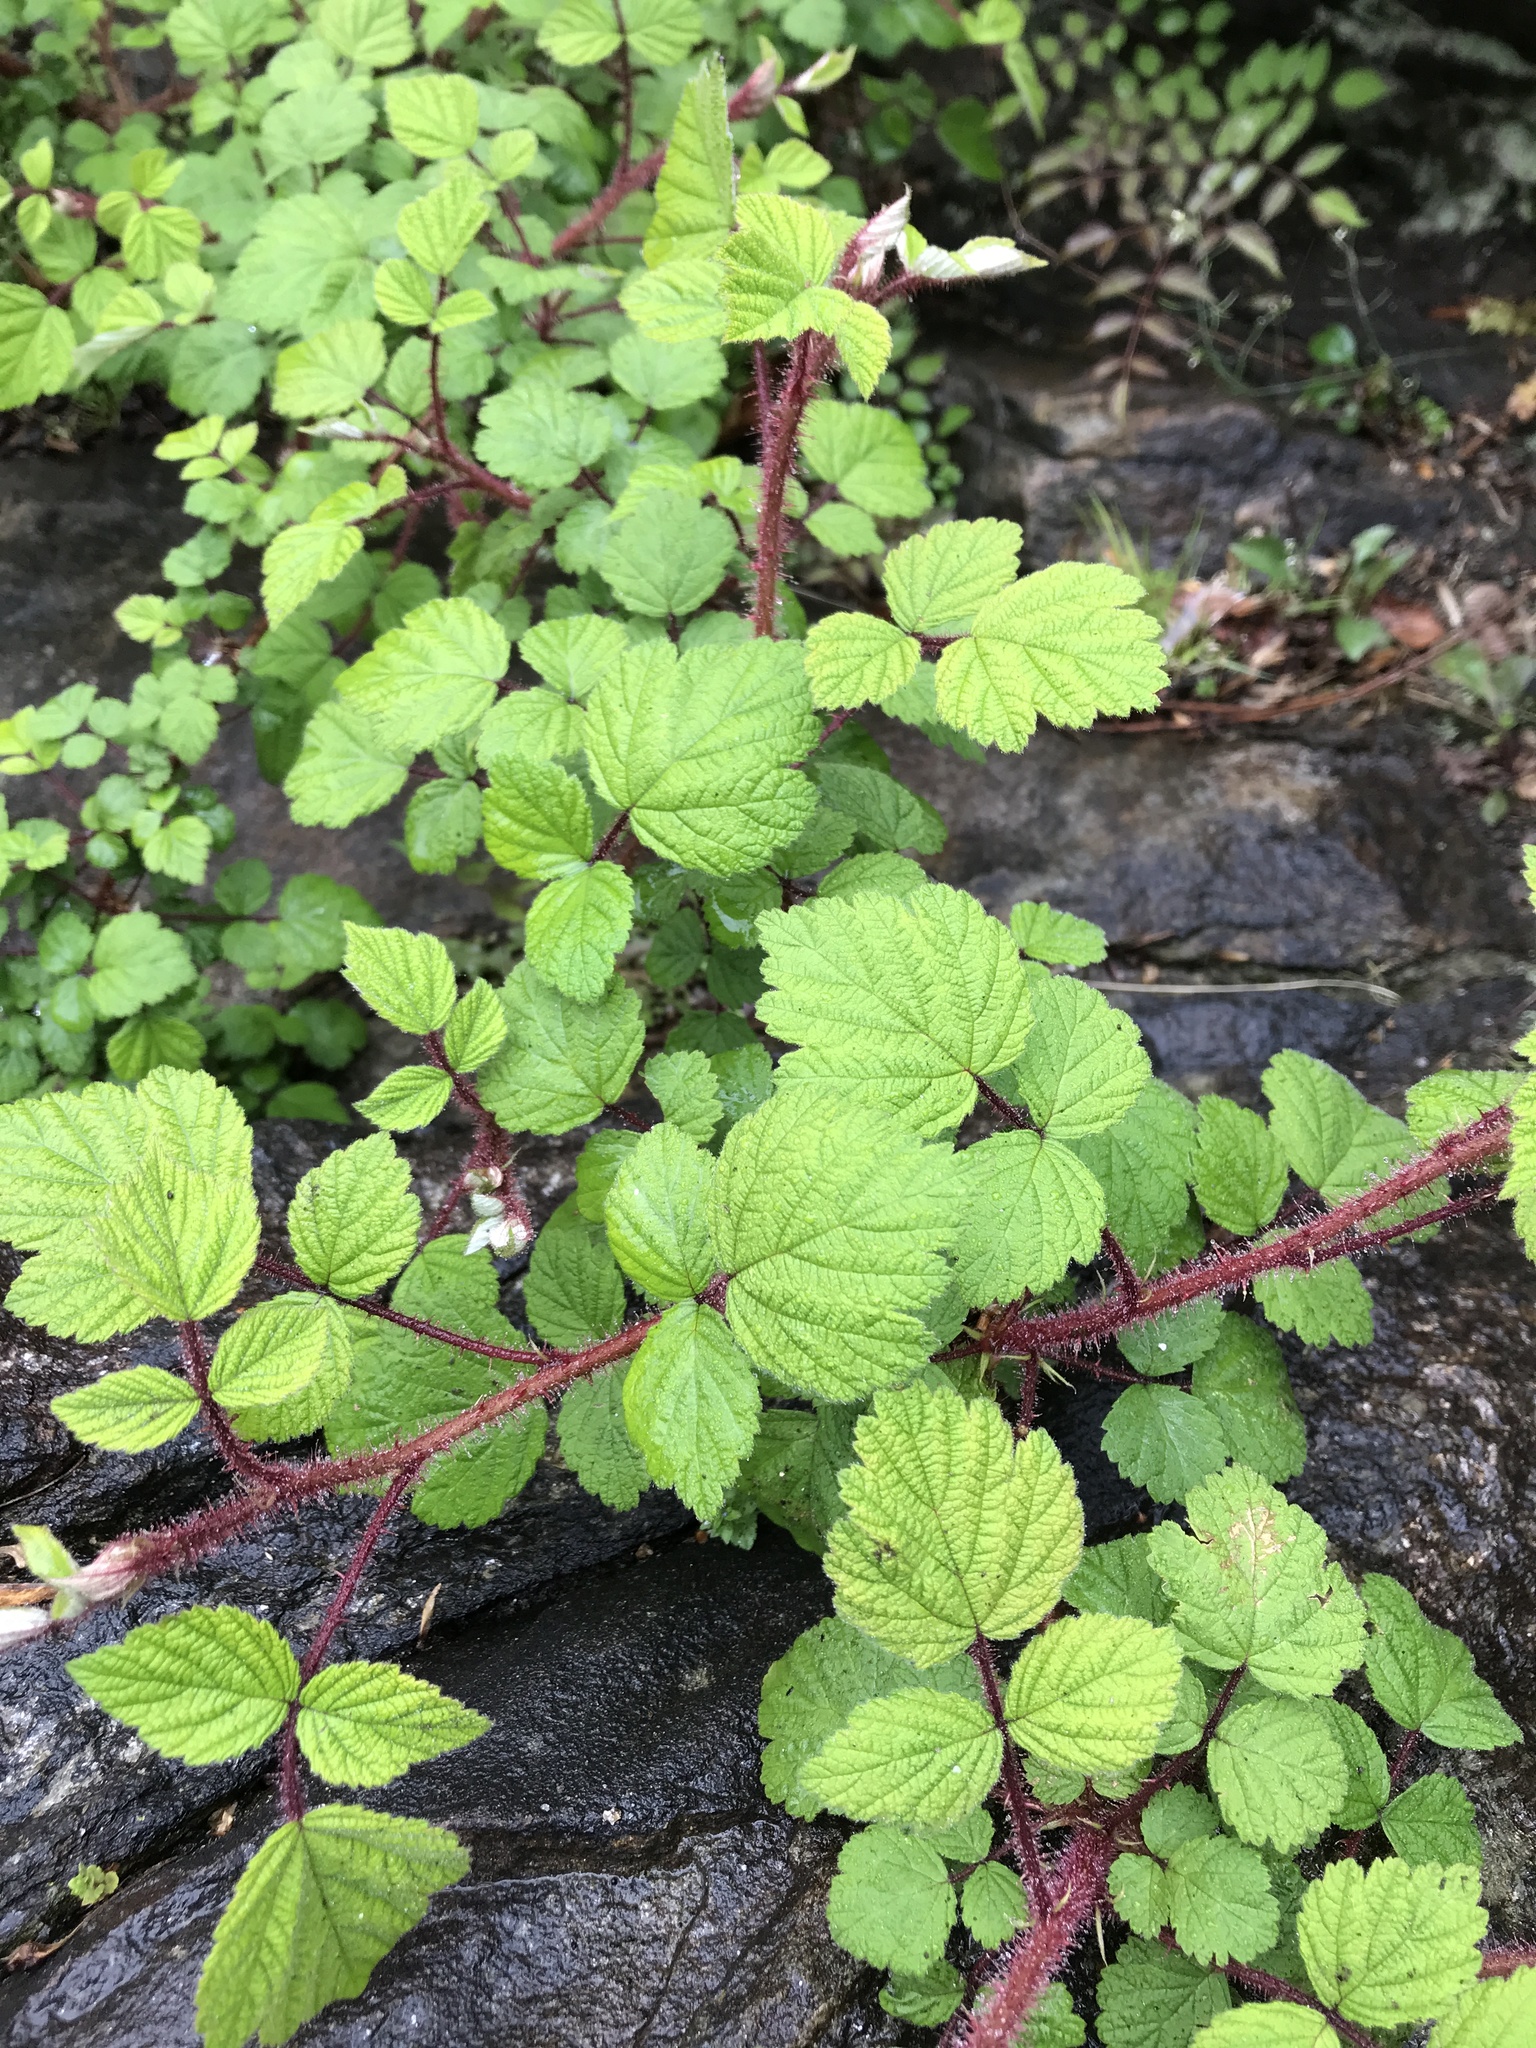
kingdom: Plantae
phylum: Tracheophyta
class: Magnoliopsida
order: Rosales
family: Rosaceae
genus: Rubus
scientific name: Rubus phoenicolasius
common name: Japanese wineberry
